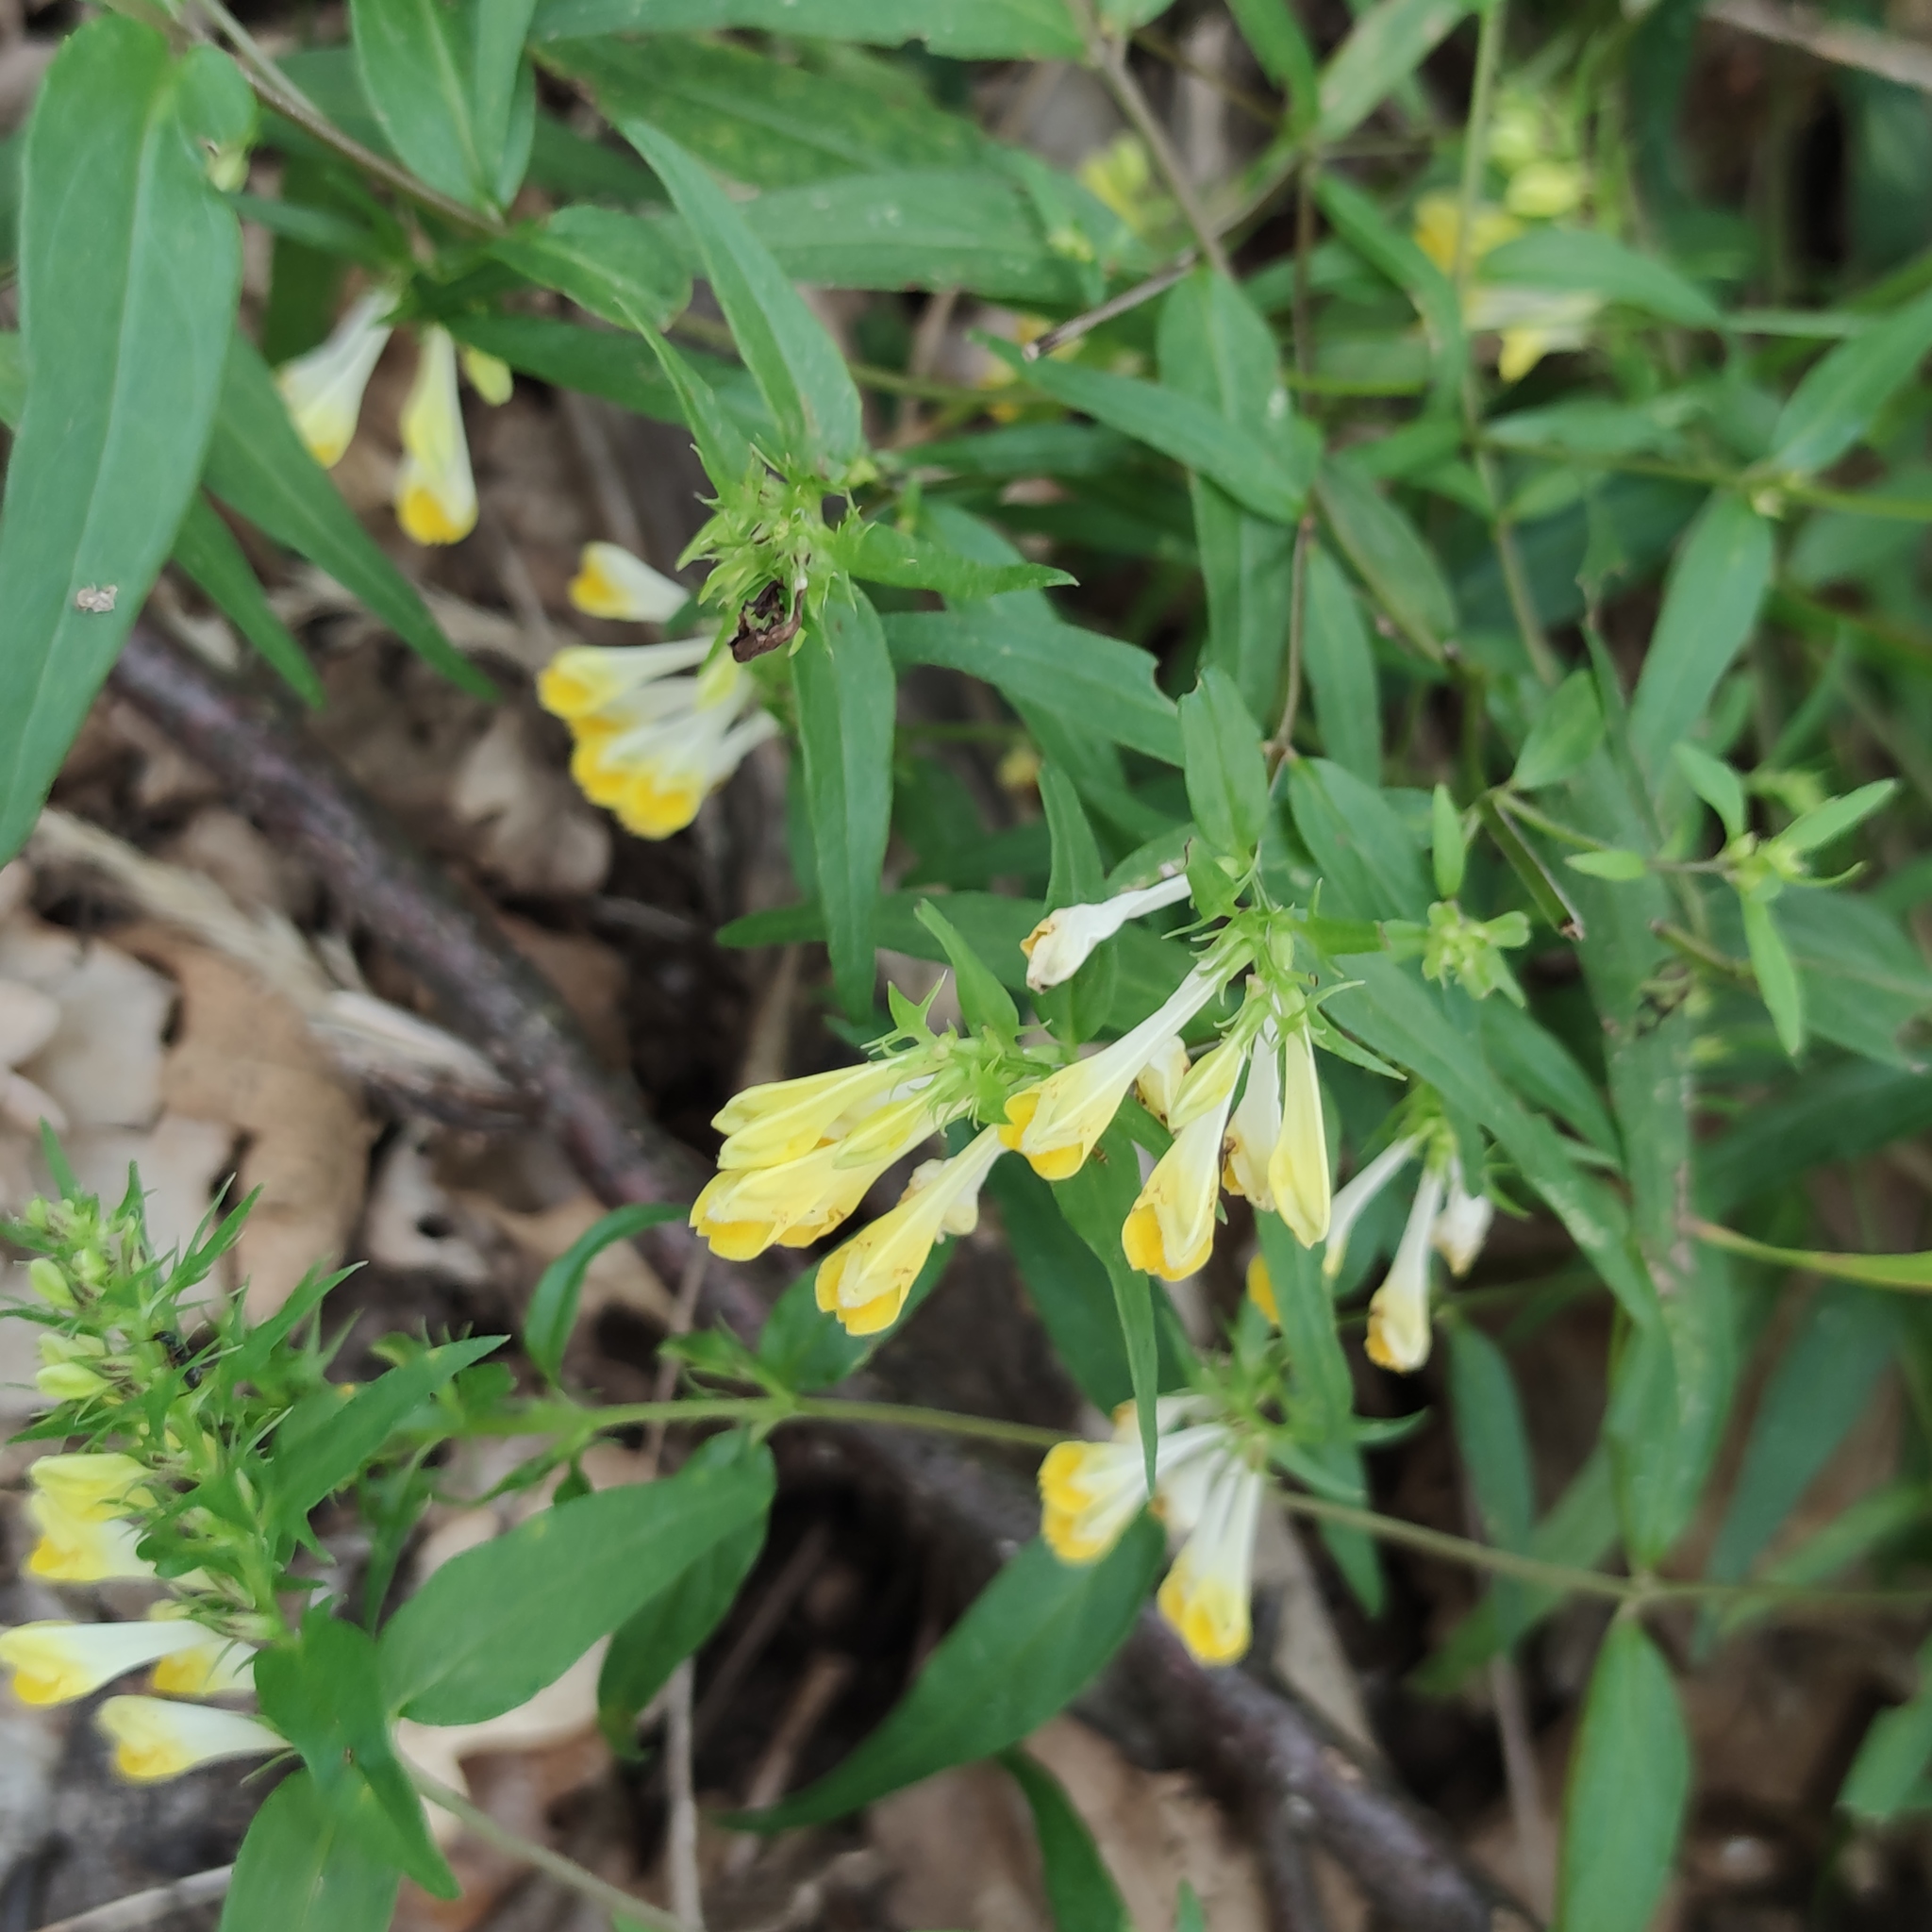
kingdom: Plantae
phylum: Tracheophyta
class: Magnoliopsida
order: Lamiales
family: Orobanchaceae
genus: Melampyrum
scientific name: Melampyrum pratense
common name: Common cow-wheat
